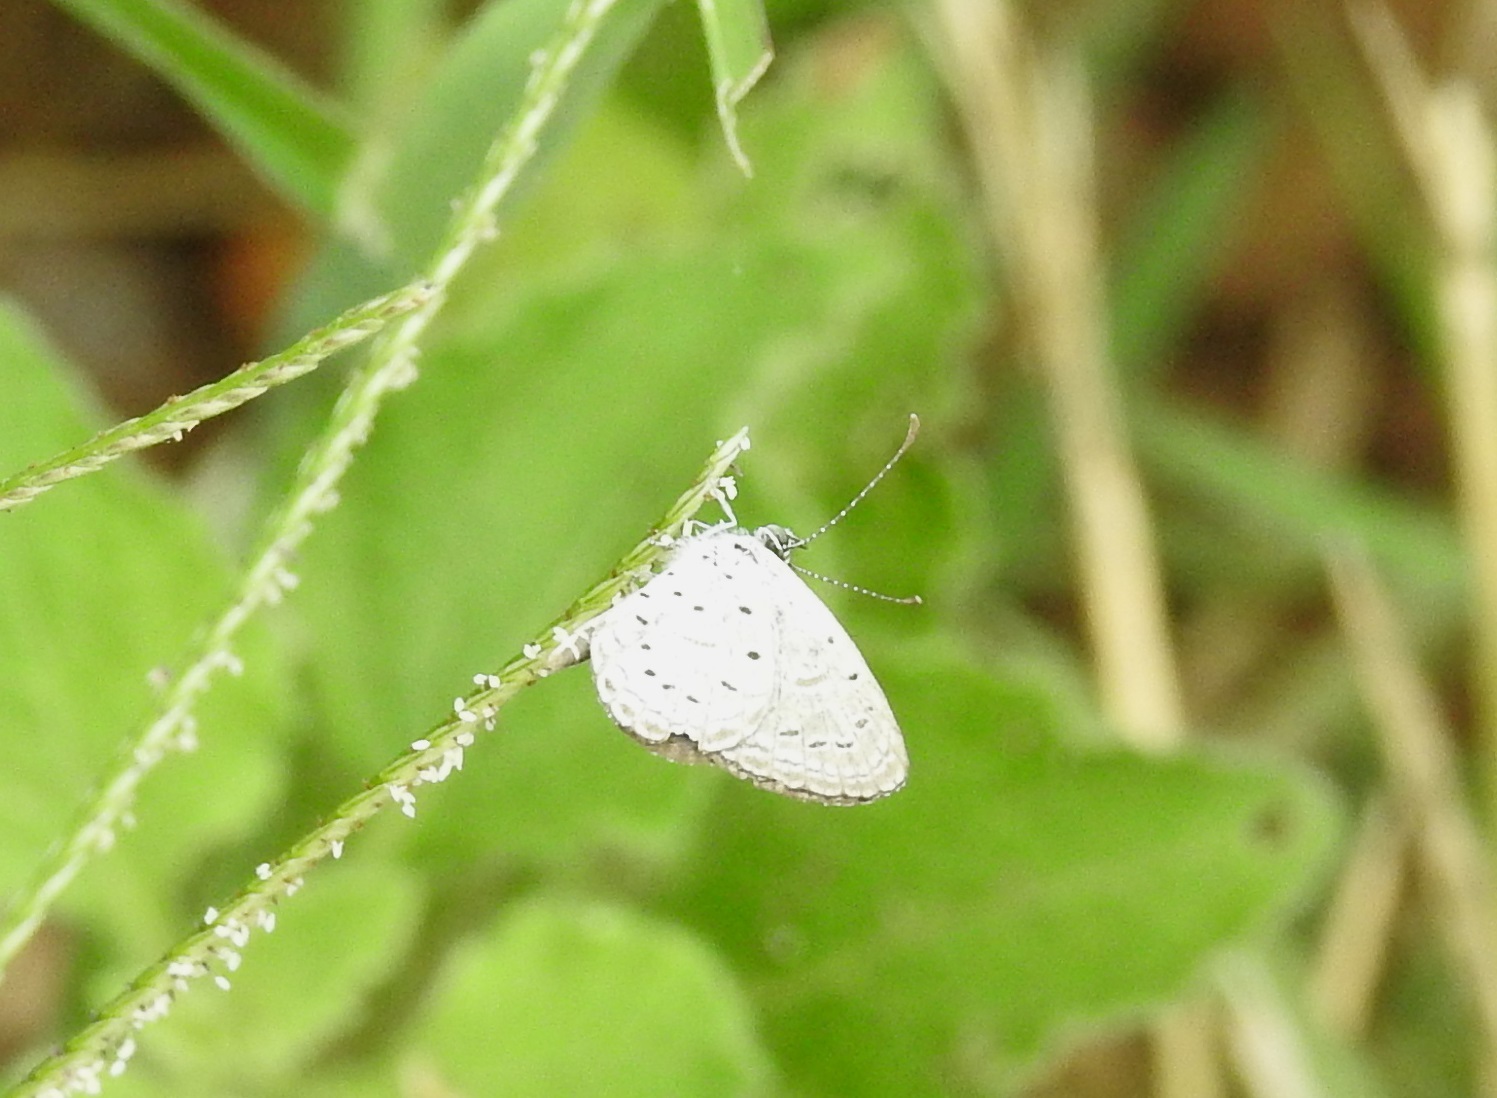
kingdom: Animalia
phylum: Arthropoda
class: Insecta
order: Lepidoptera
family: Lycaenidae
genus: Zizula
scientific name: Zizula hylax
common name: Gaika blue
